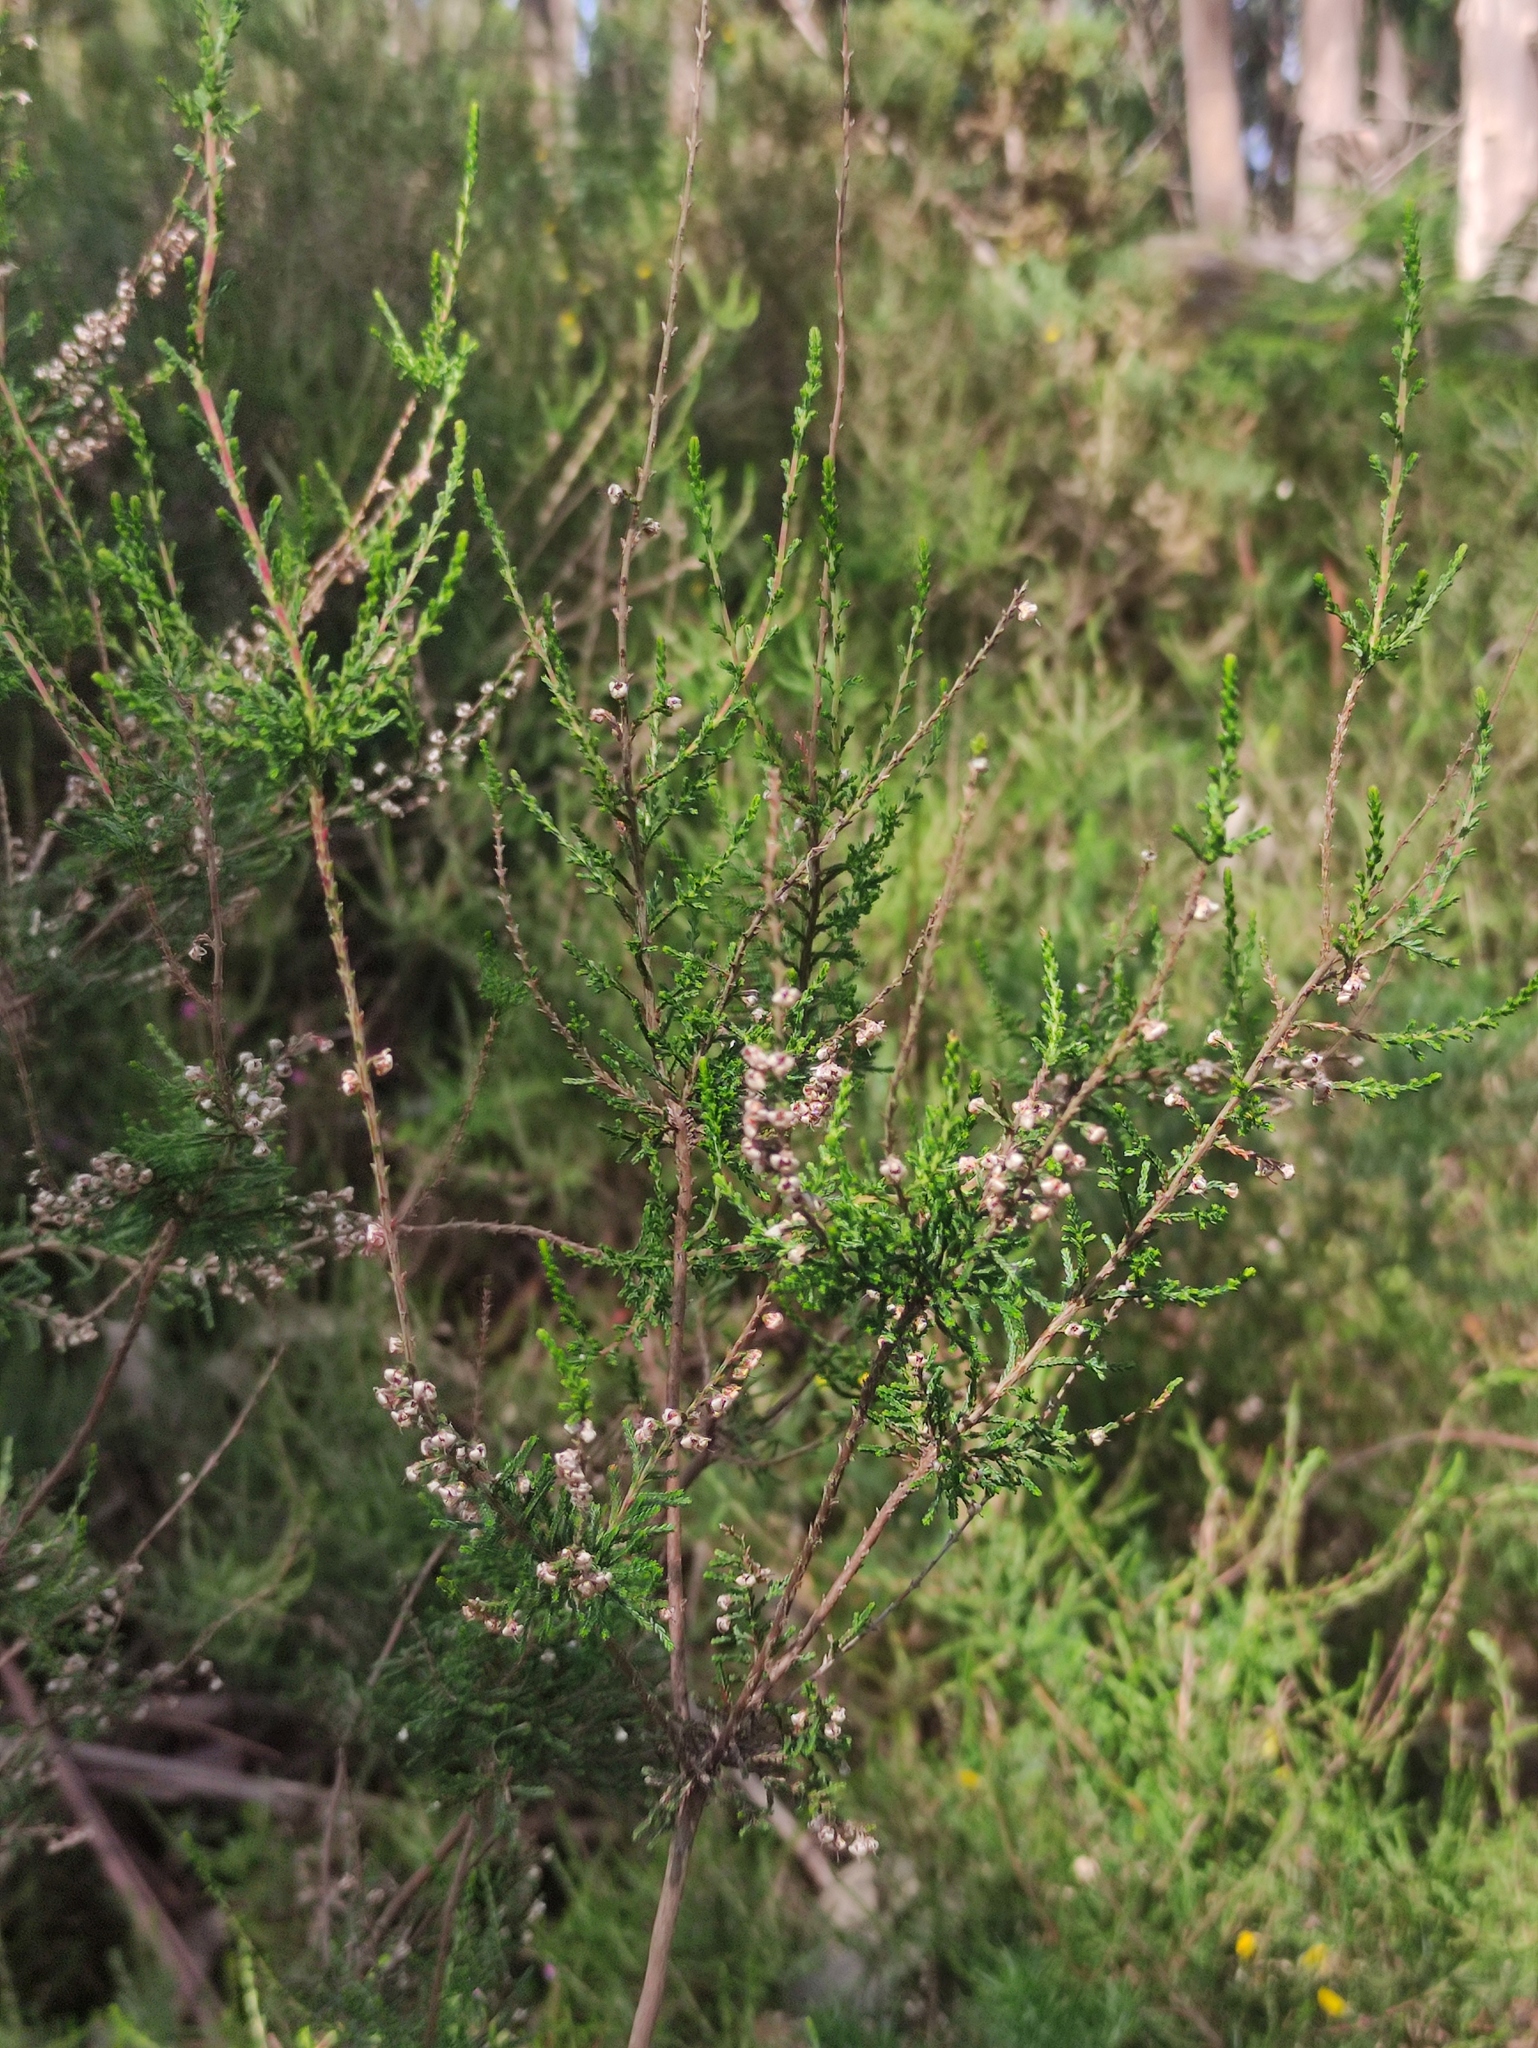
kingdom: Plantae
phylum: Tracheophyta
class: Magnoliopsida
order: Ericales
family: Ericaceae
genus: Calluna
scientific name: Calluna vulgaris
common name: Heather
